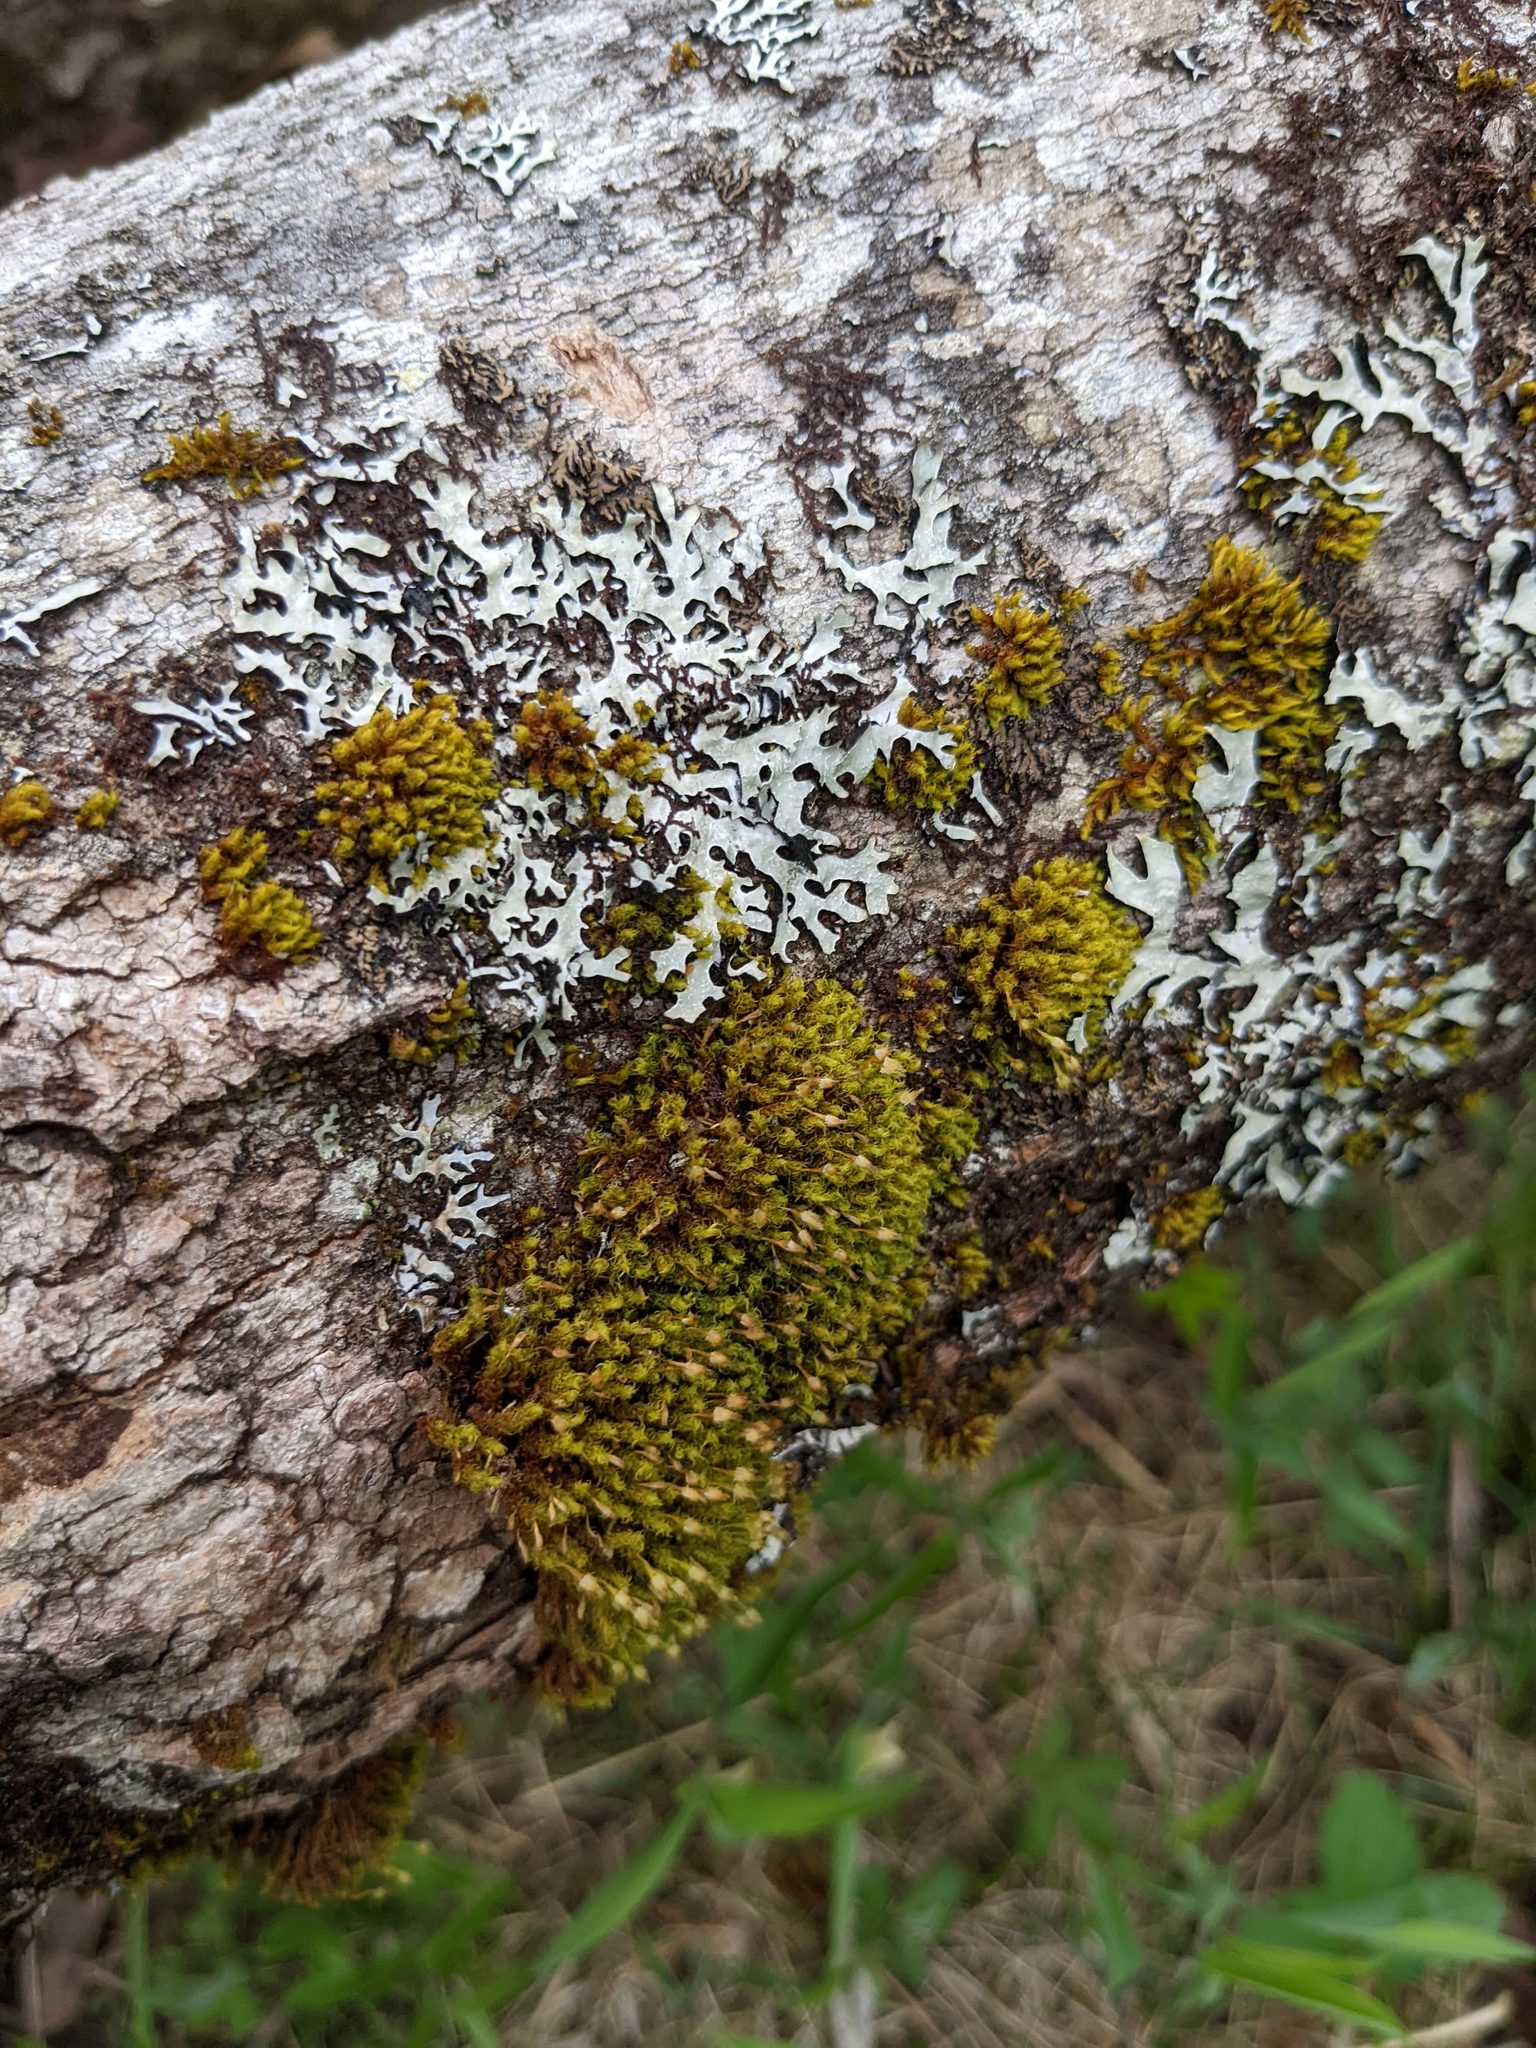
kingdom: Plantae
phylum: Bryophyta
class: Bryopsida
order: Orthotrichales
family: Orthotrichaceae
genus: Ulota
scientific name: Ulota crispa
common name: Crisped pincushion moss
